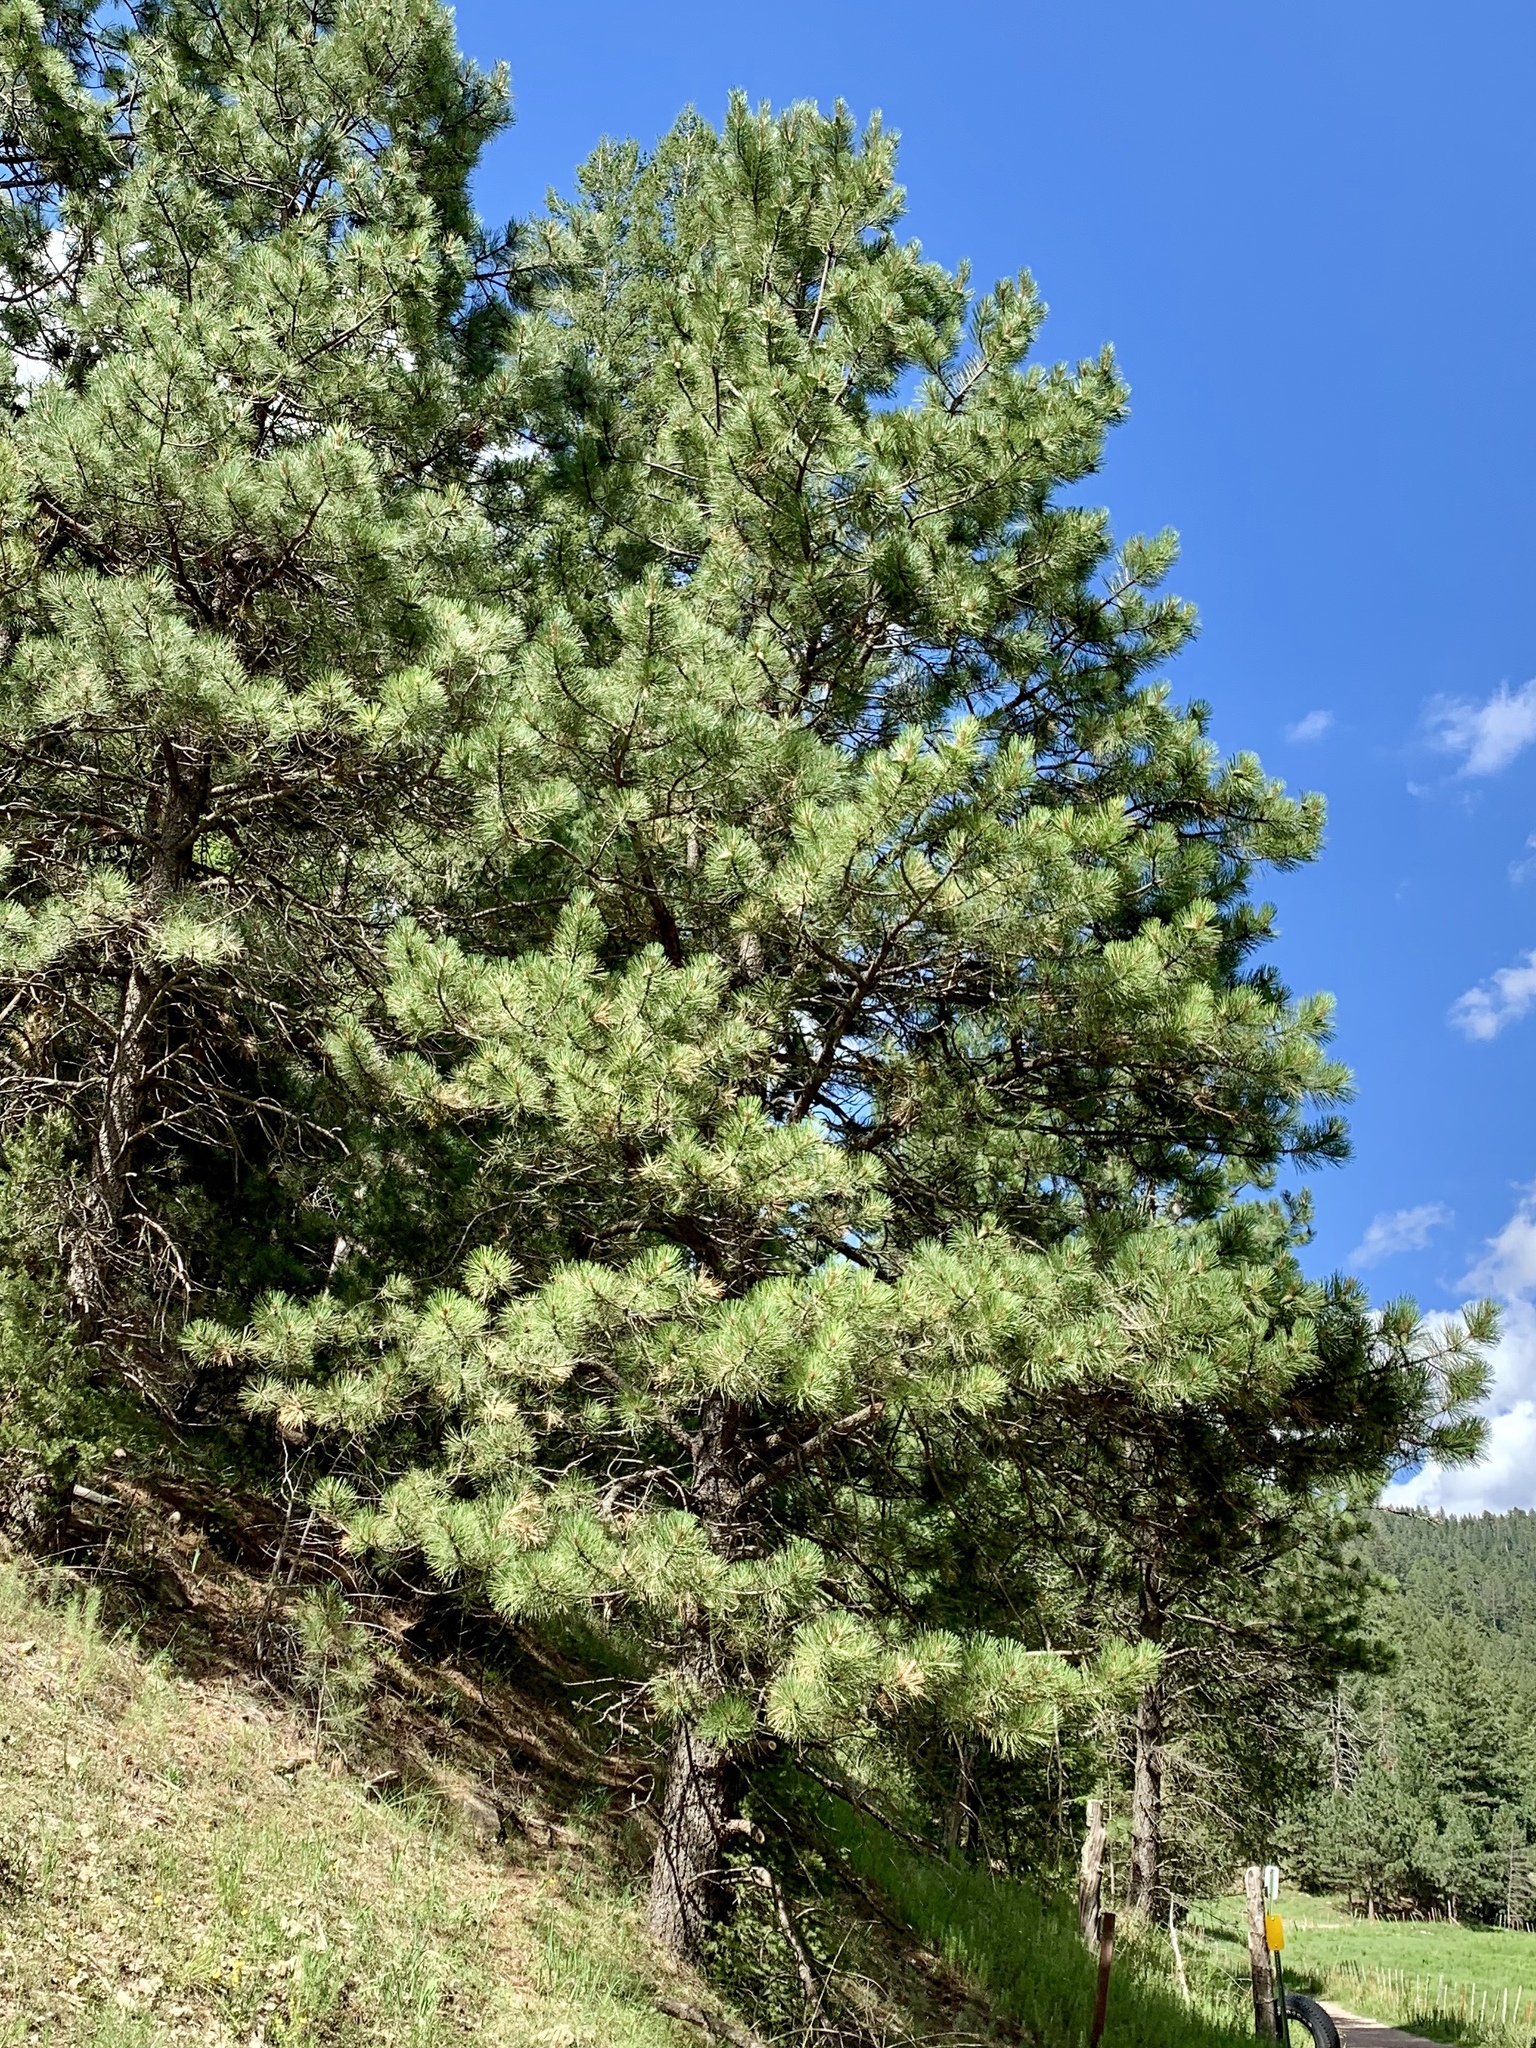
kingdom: Plantae
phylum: Tracheophyta
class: Pinopsida
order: Pinales
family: Pinaceae
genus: Pinus
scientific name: Pinus ponderosa
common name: Western yellow-pine
